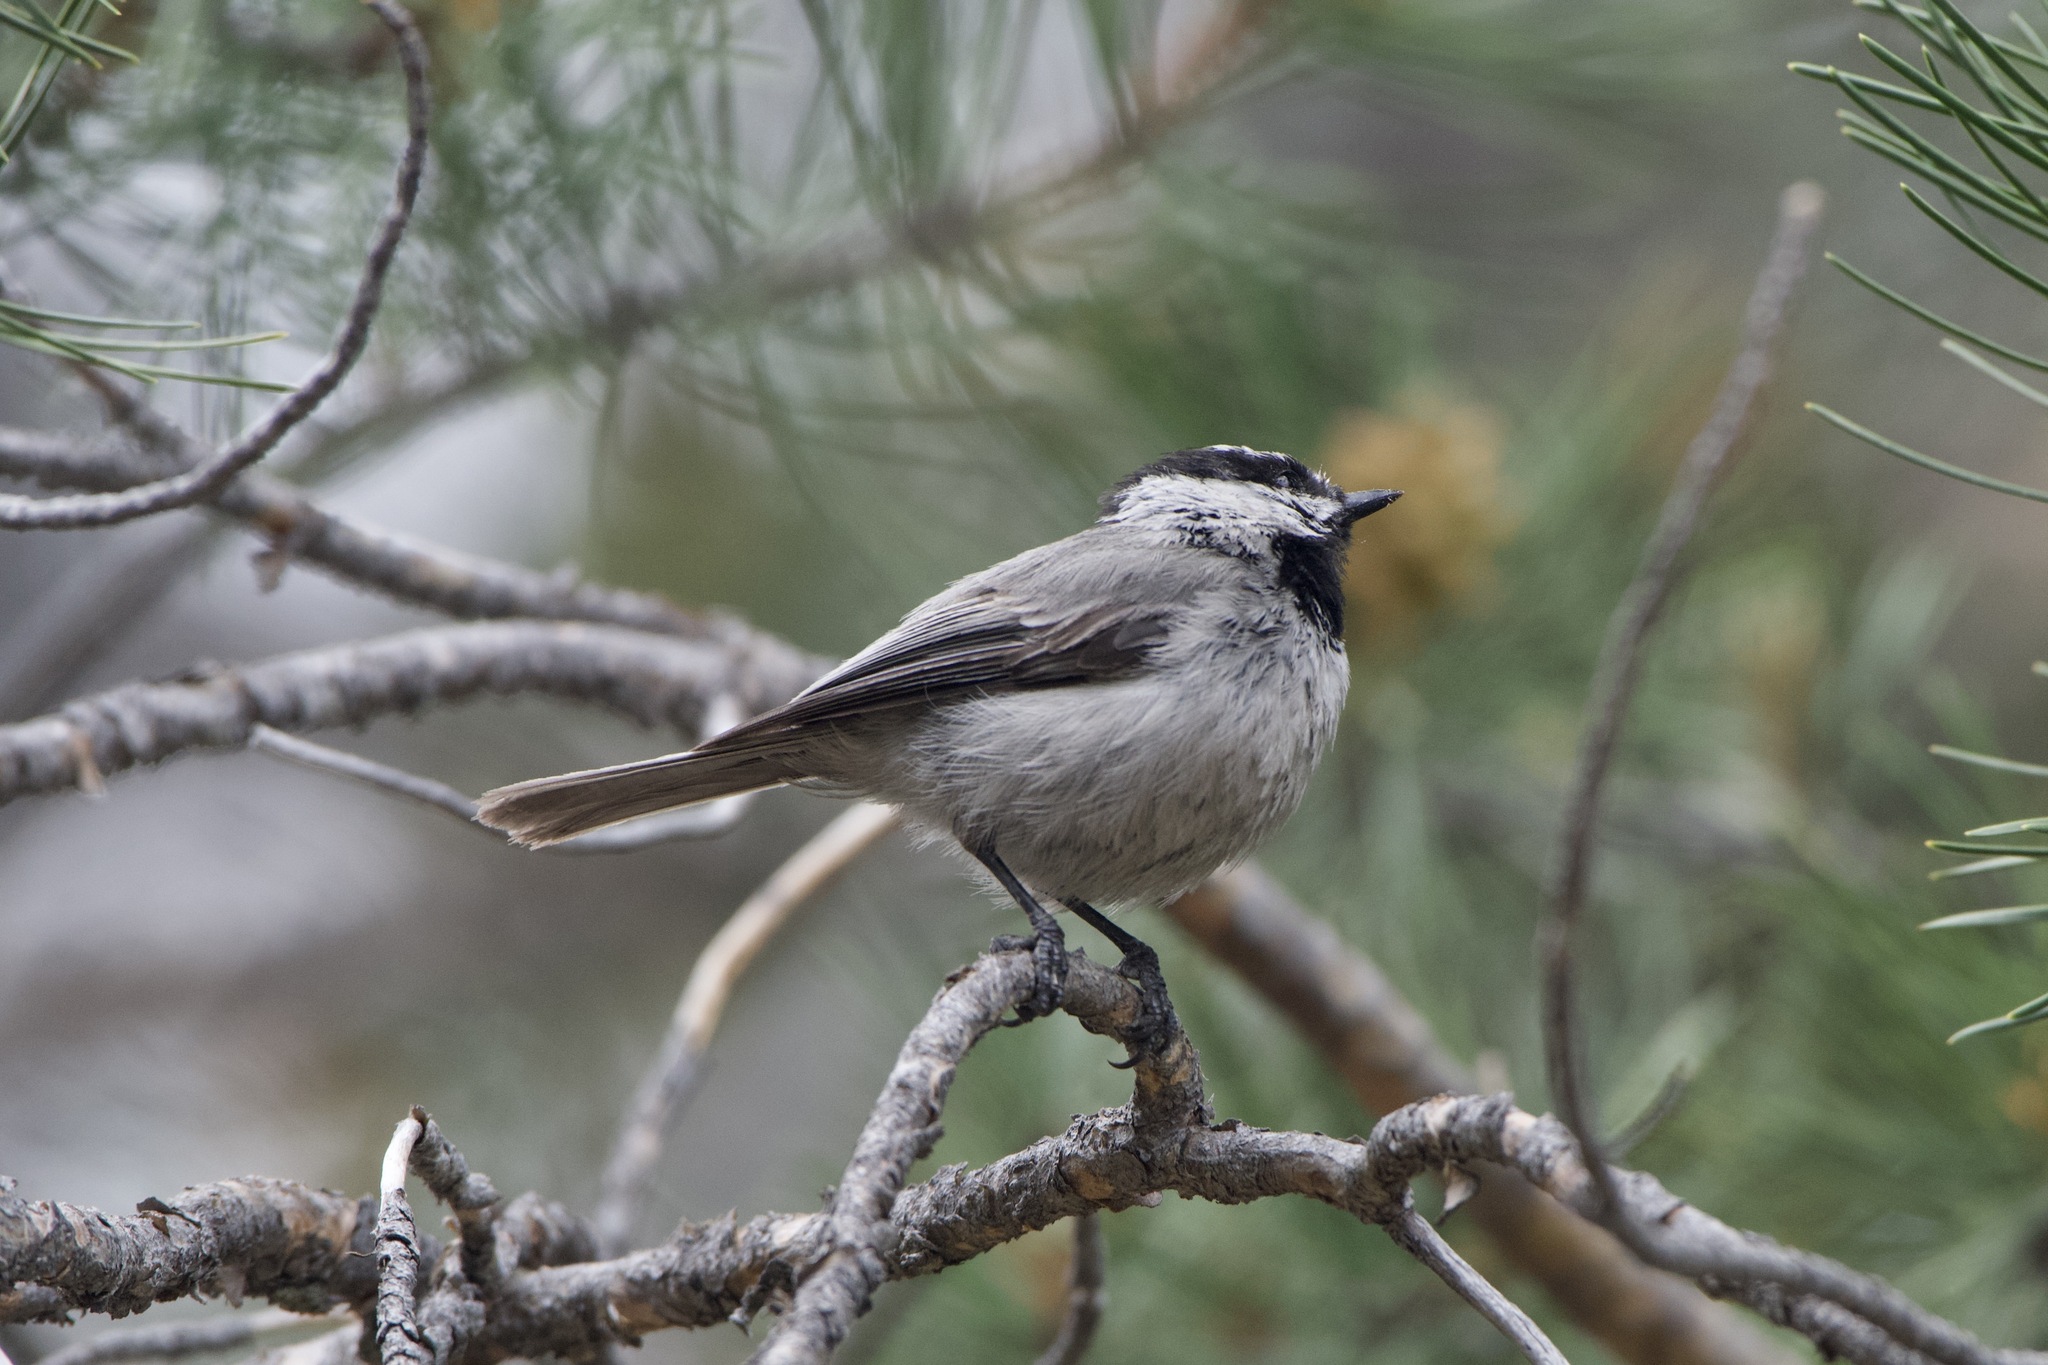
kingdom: Animalia
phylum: Chordata
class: Aves
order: Passeriformes
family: Paridae
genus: Poecile
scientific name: Poecile gambeli
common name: Mountain chickadee
